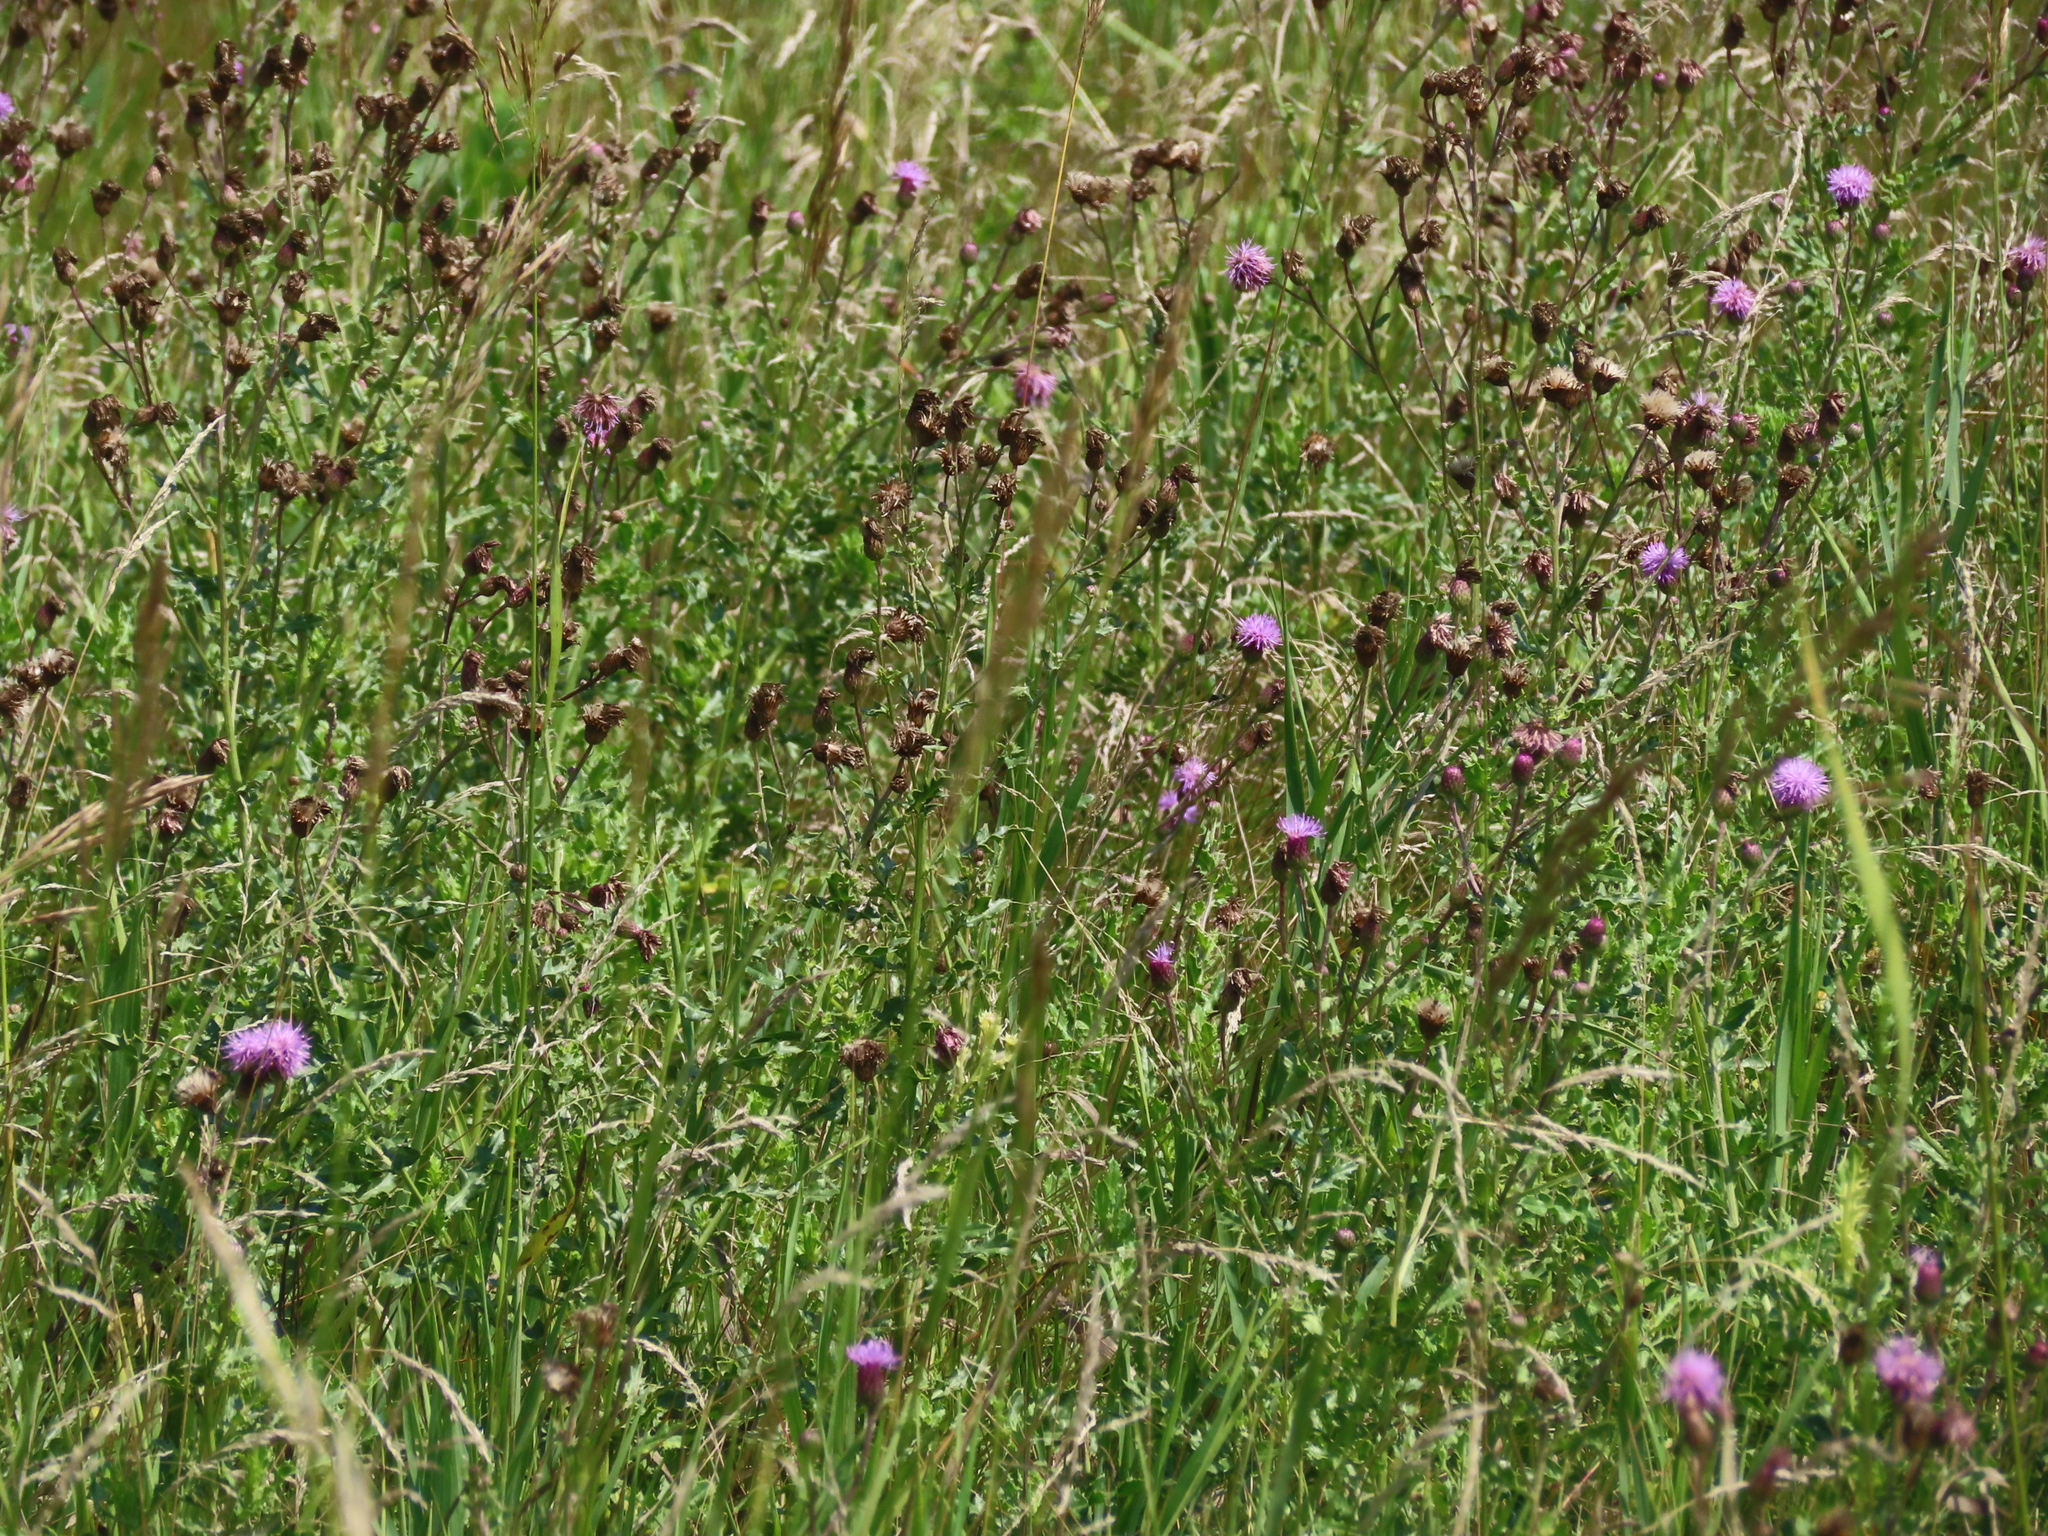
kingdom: Plantae
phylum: Tracheophyta
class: Magnoliopsida
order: Asterales
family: Asteraceae
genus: Cirsium
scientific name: Cirsium arvense
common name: Creeping thistle
